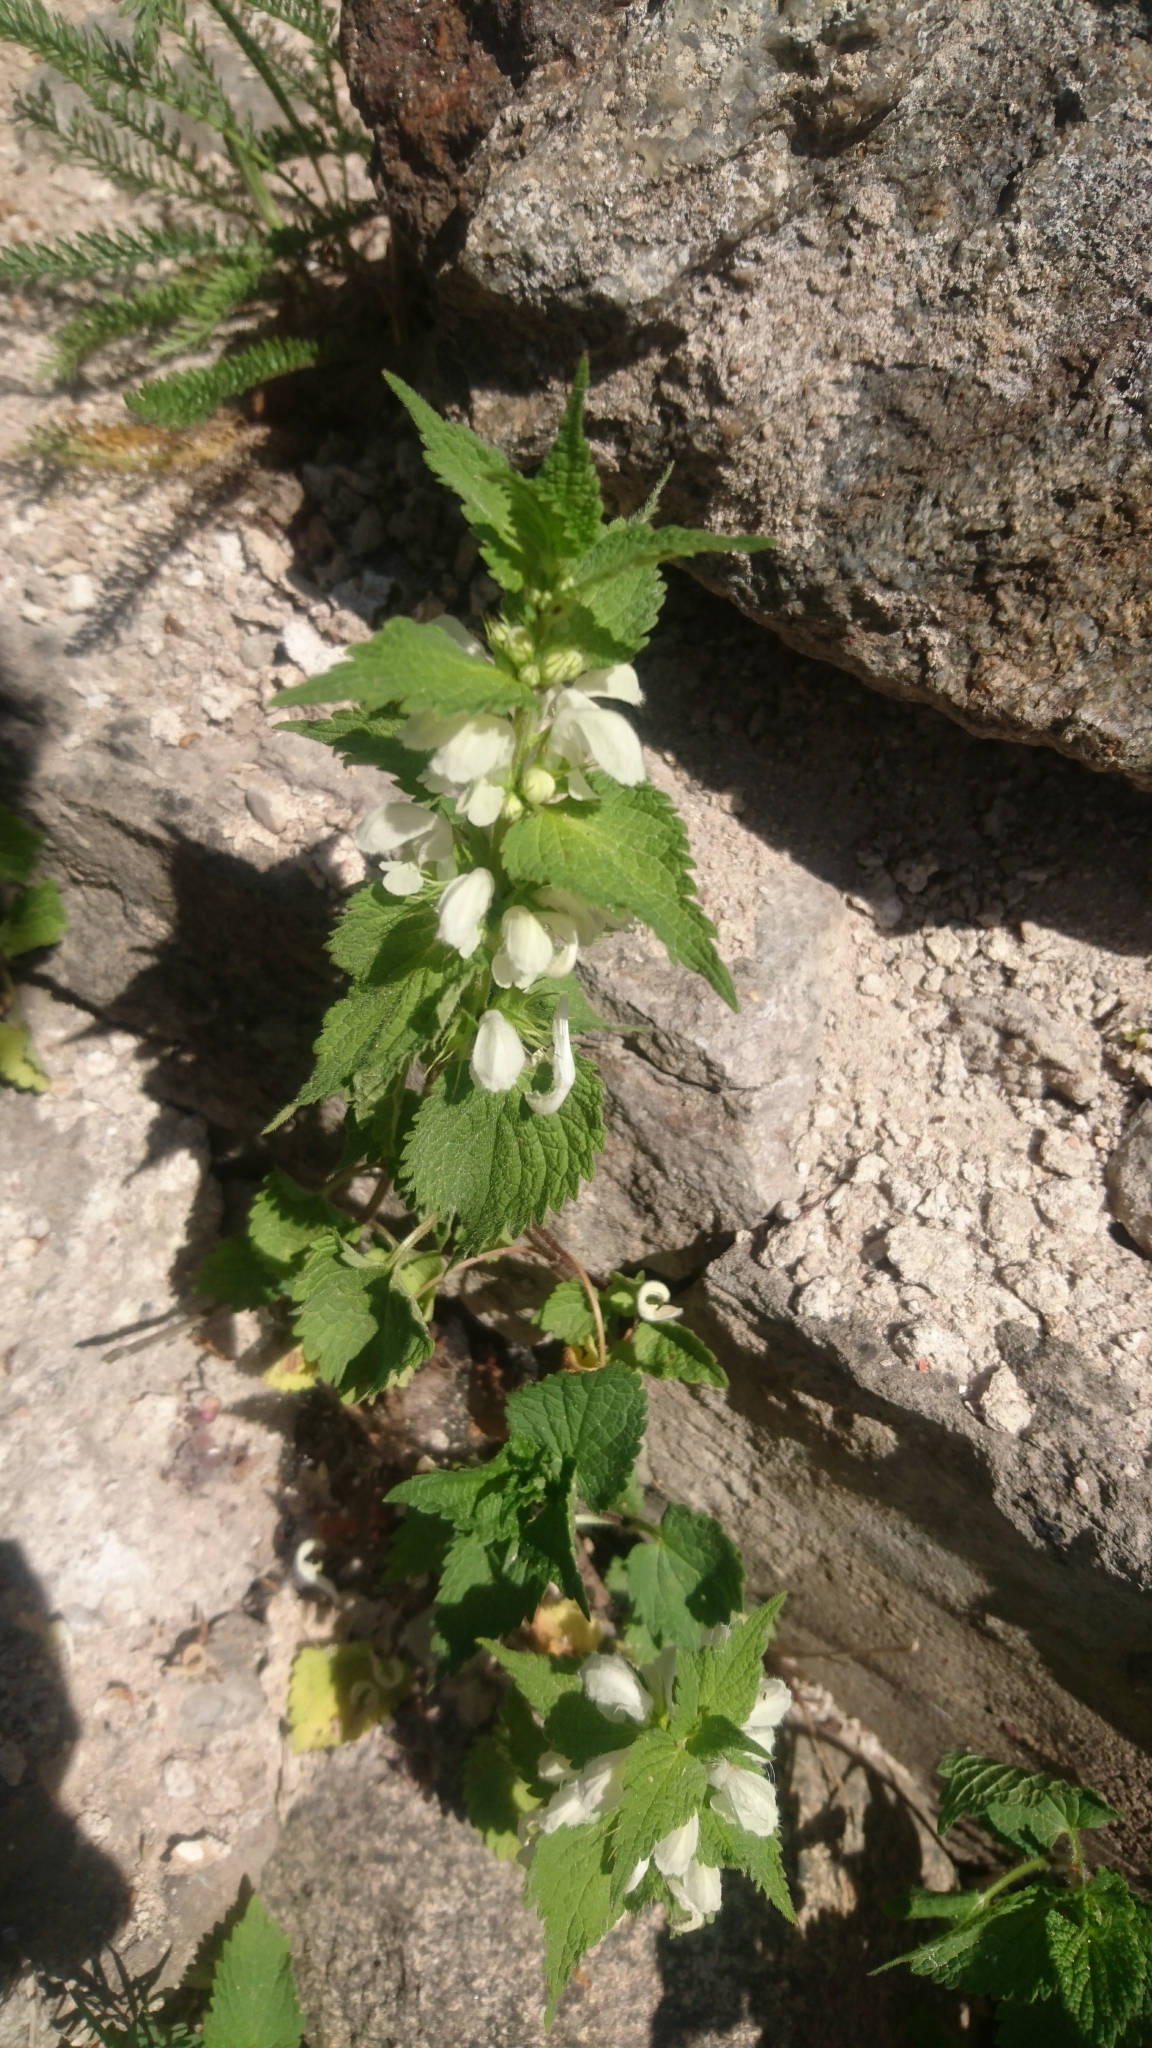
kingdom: Plantae
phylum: Tracheophyta
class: Magnoliopsida
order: Lamiales
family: Lamiaceae
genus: Lamium
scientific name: Lamium album
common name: White dead-nettle
